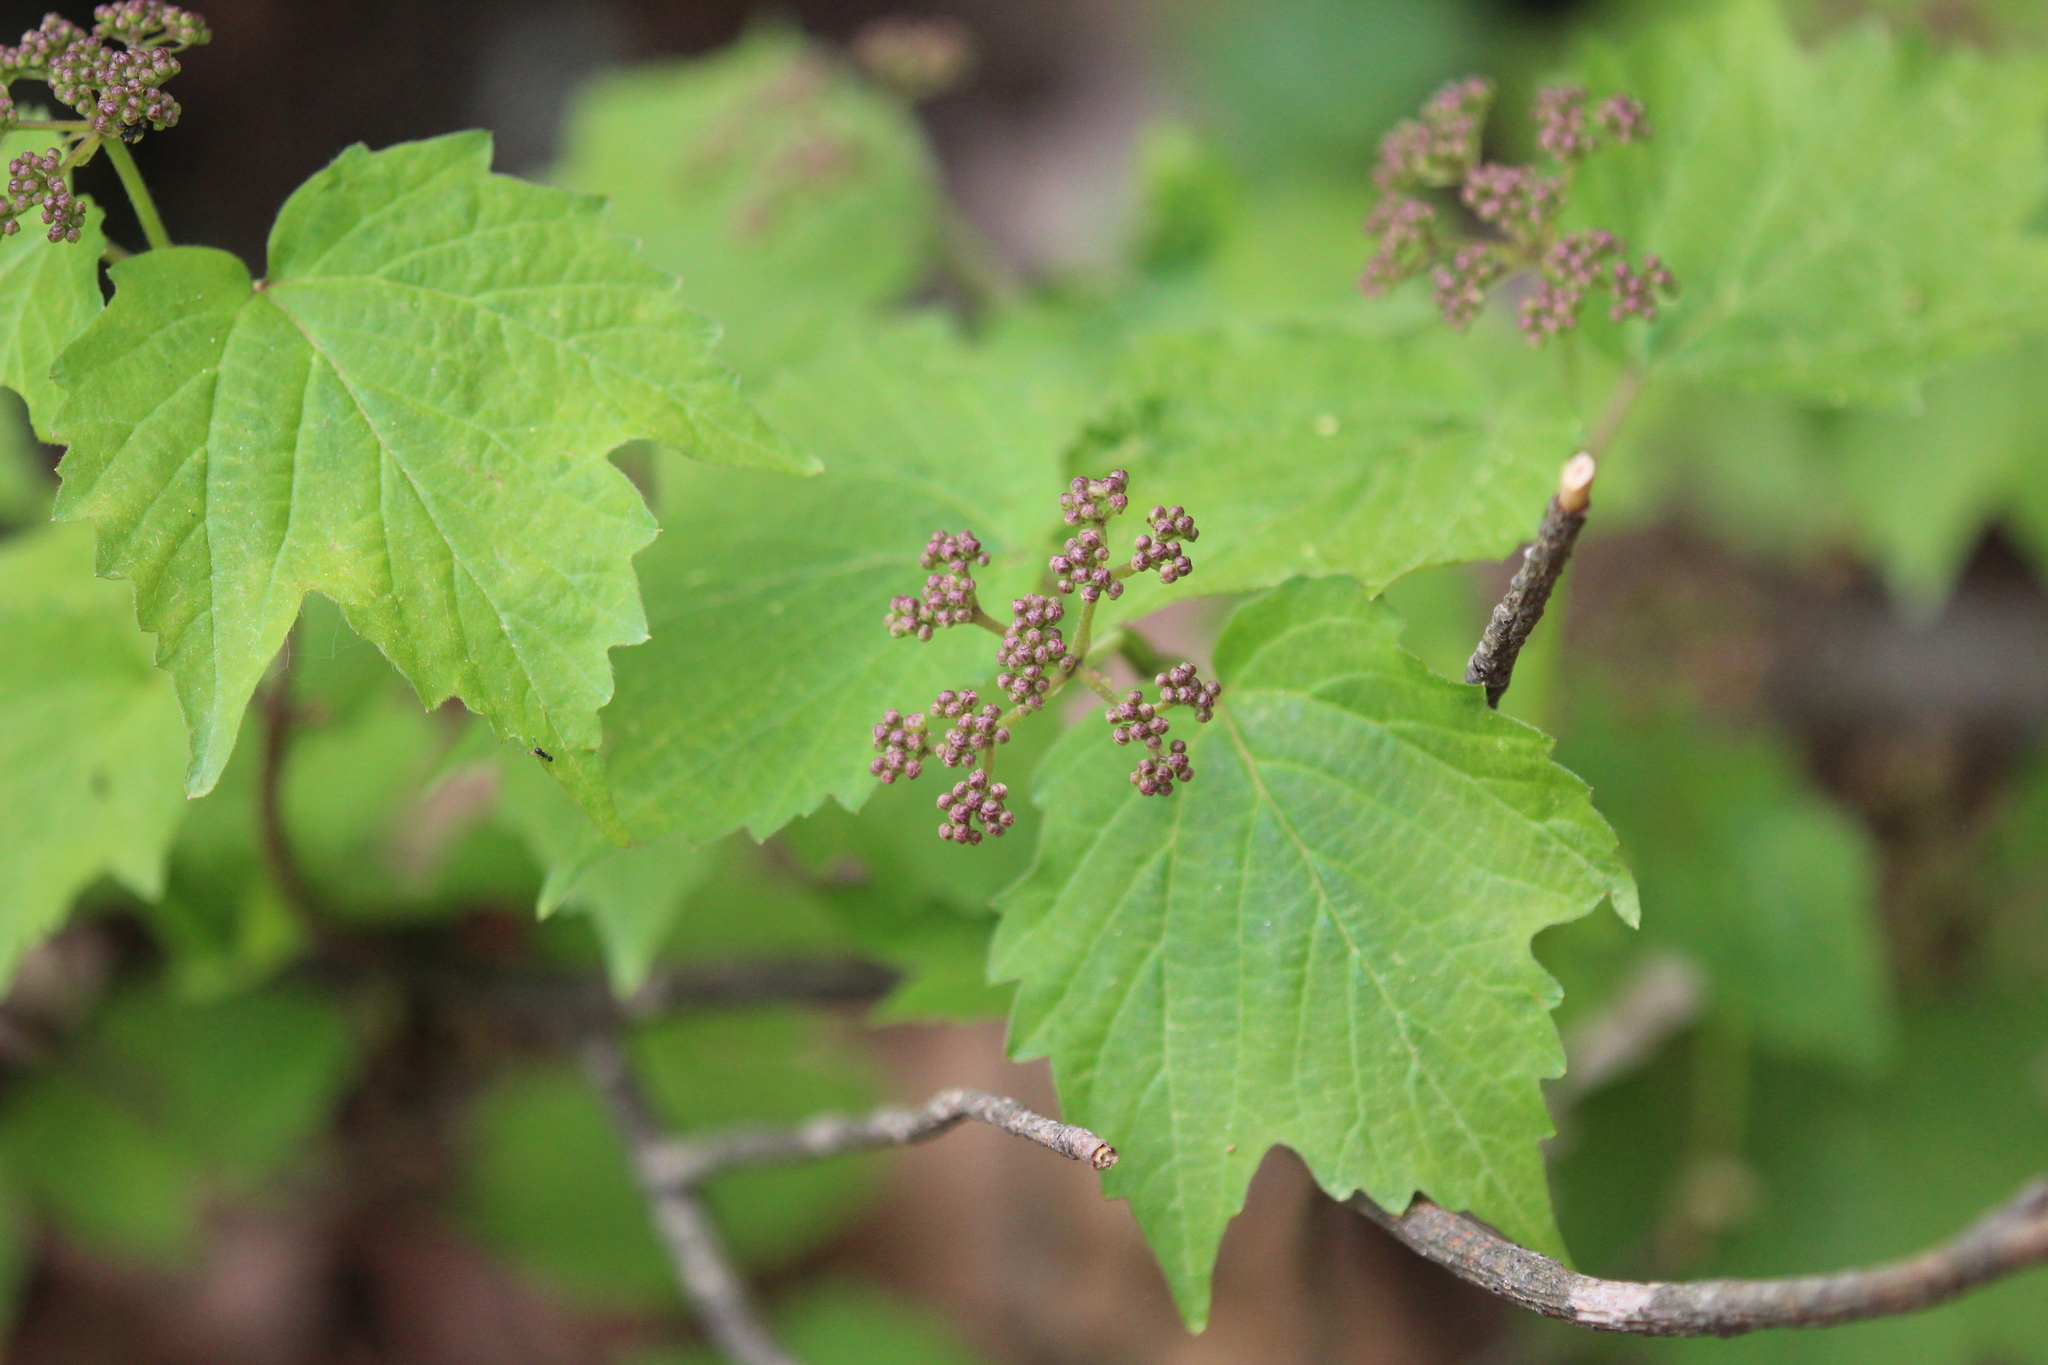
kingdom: Plantae
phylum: Tracheophyta
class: Magnoliopsida
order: Dipsacales
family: Viburnaceae
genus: Viburnum
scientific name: Viburnum acerifolium
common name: Dockmackie
